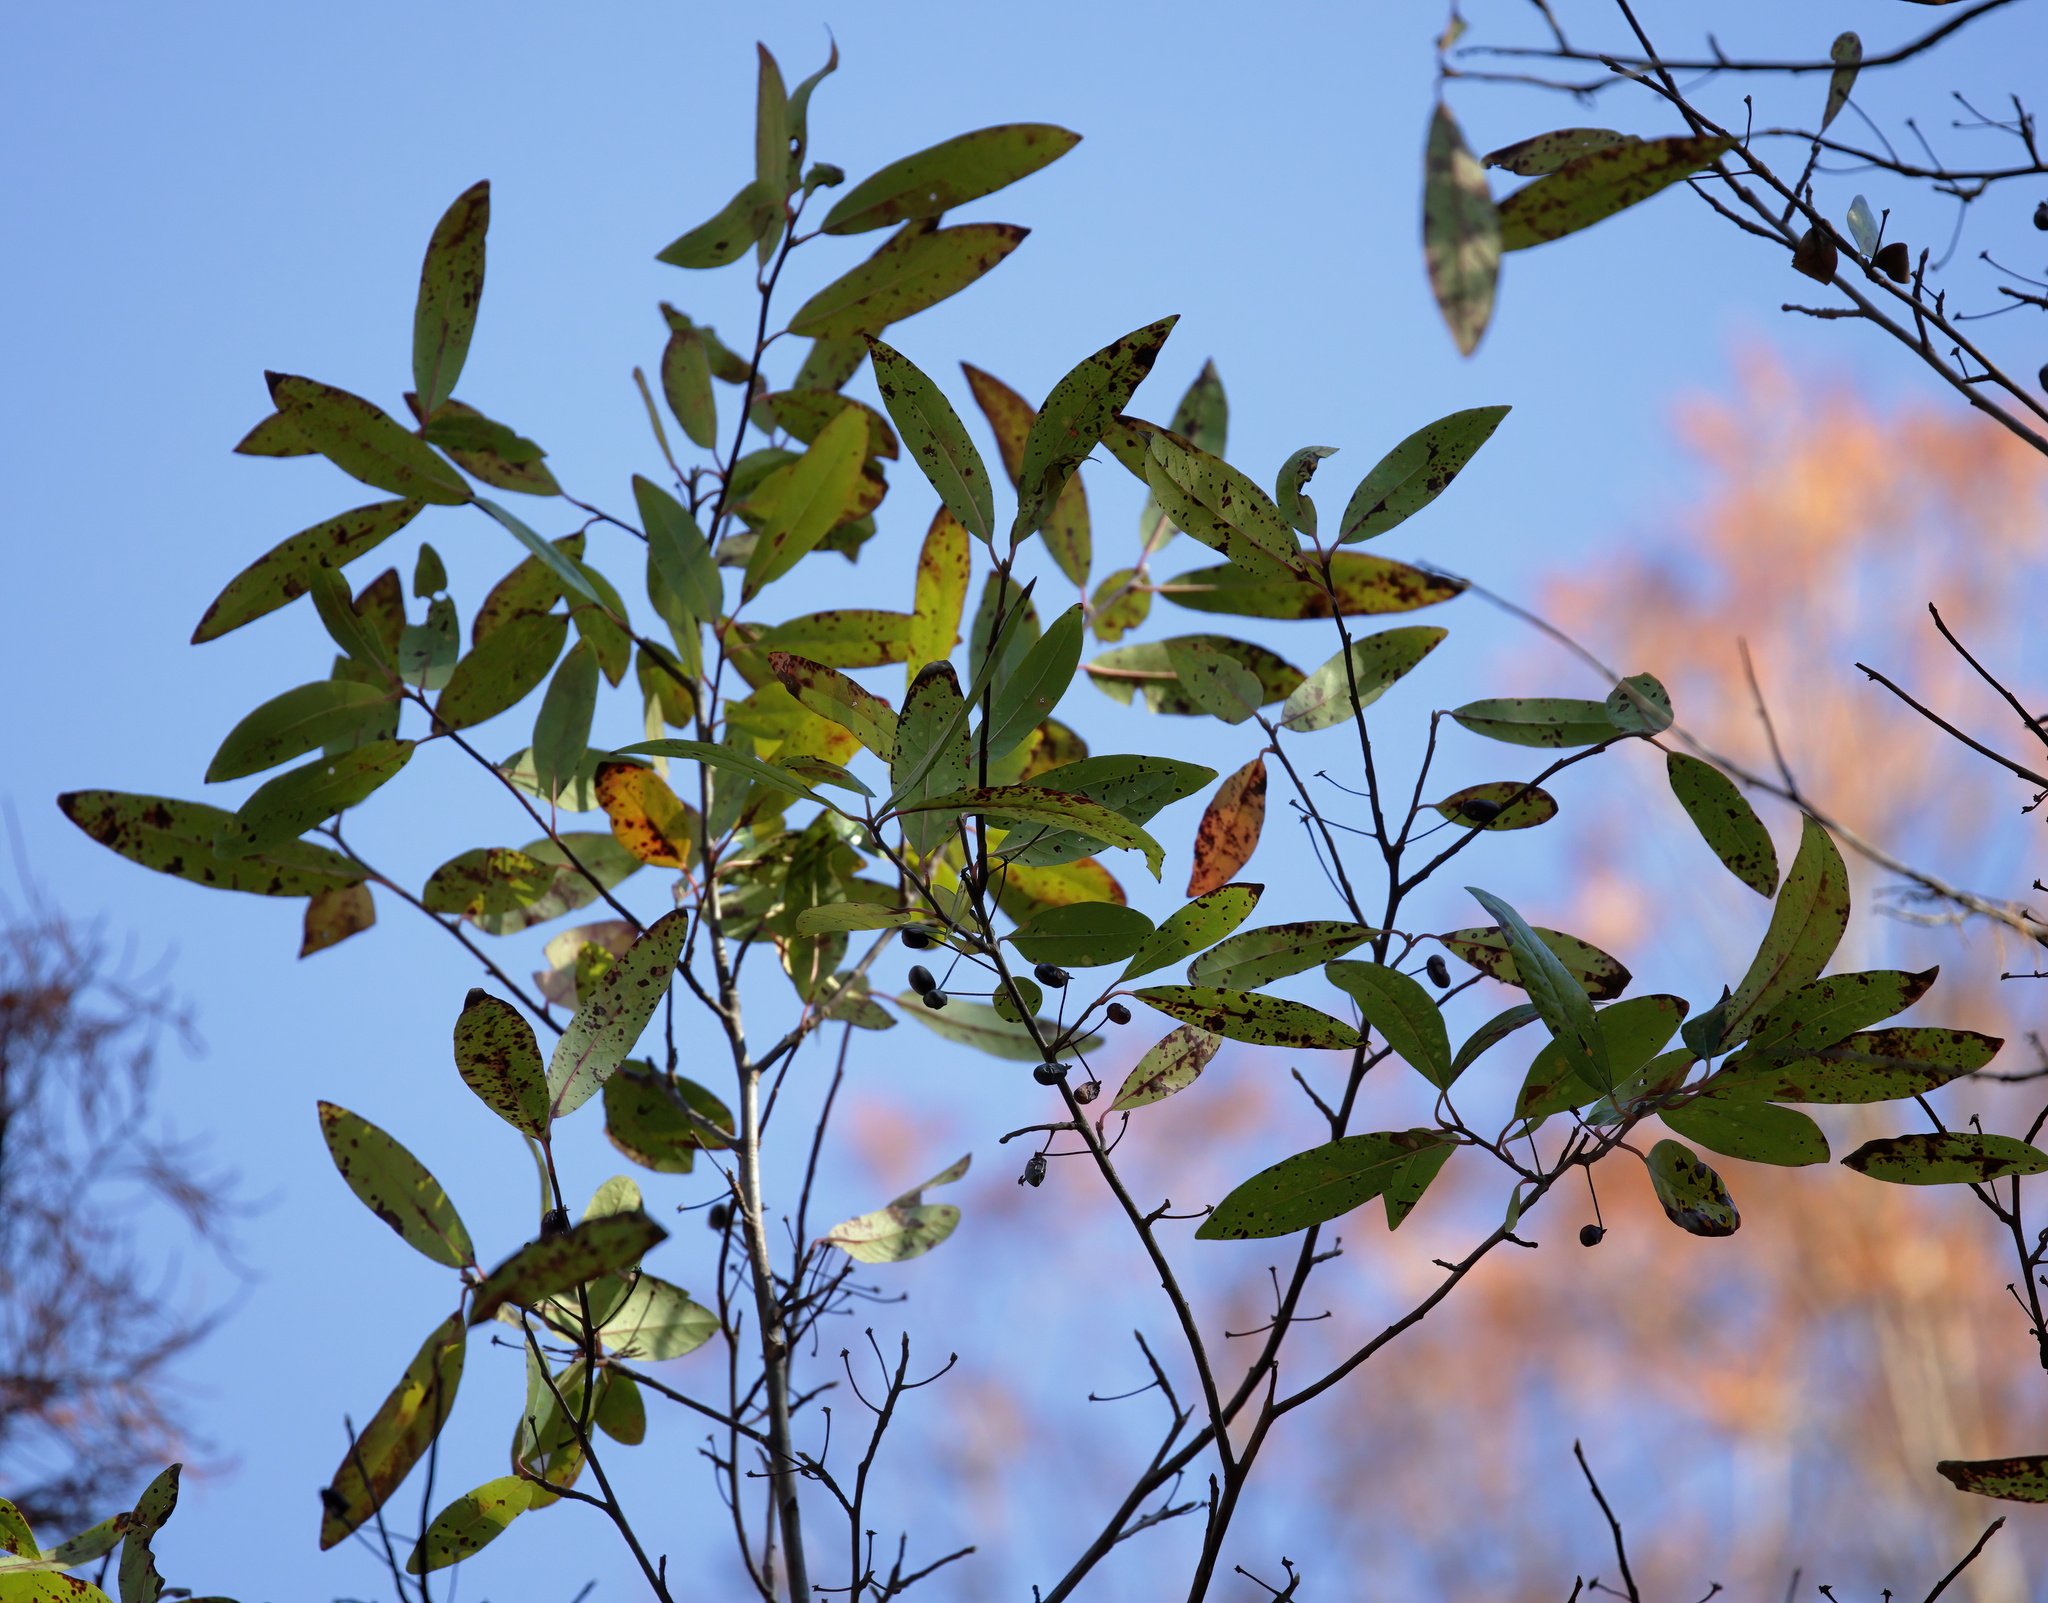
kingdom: Plantae
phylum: Tracheophyta
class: Magnoliopsida
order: Cornales
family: Nyssaceae
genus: Nyssa
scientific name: Nyssa biflora
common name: Swamp blackgum
